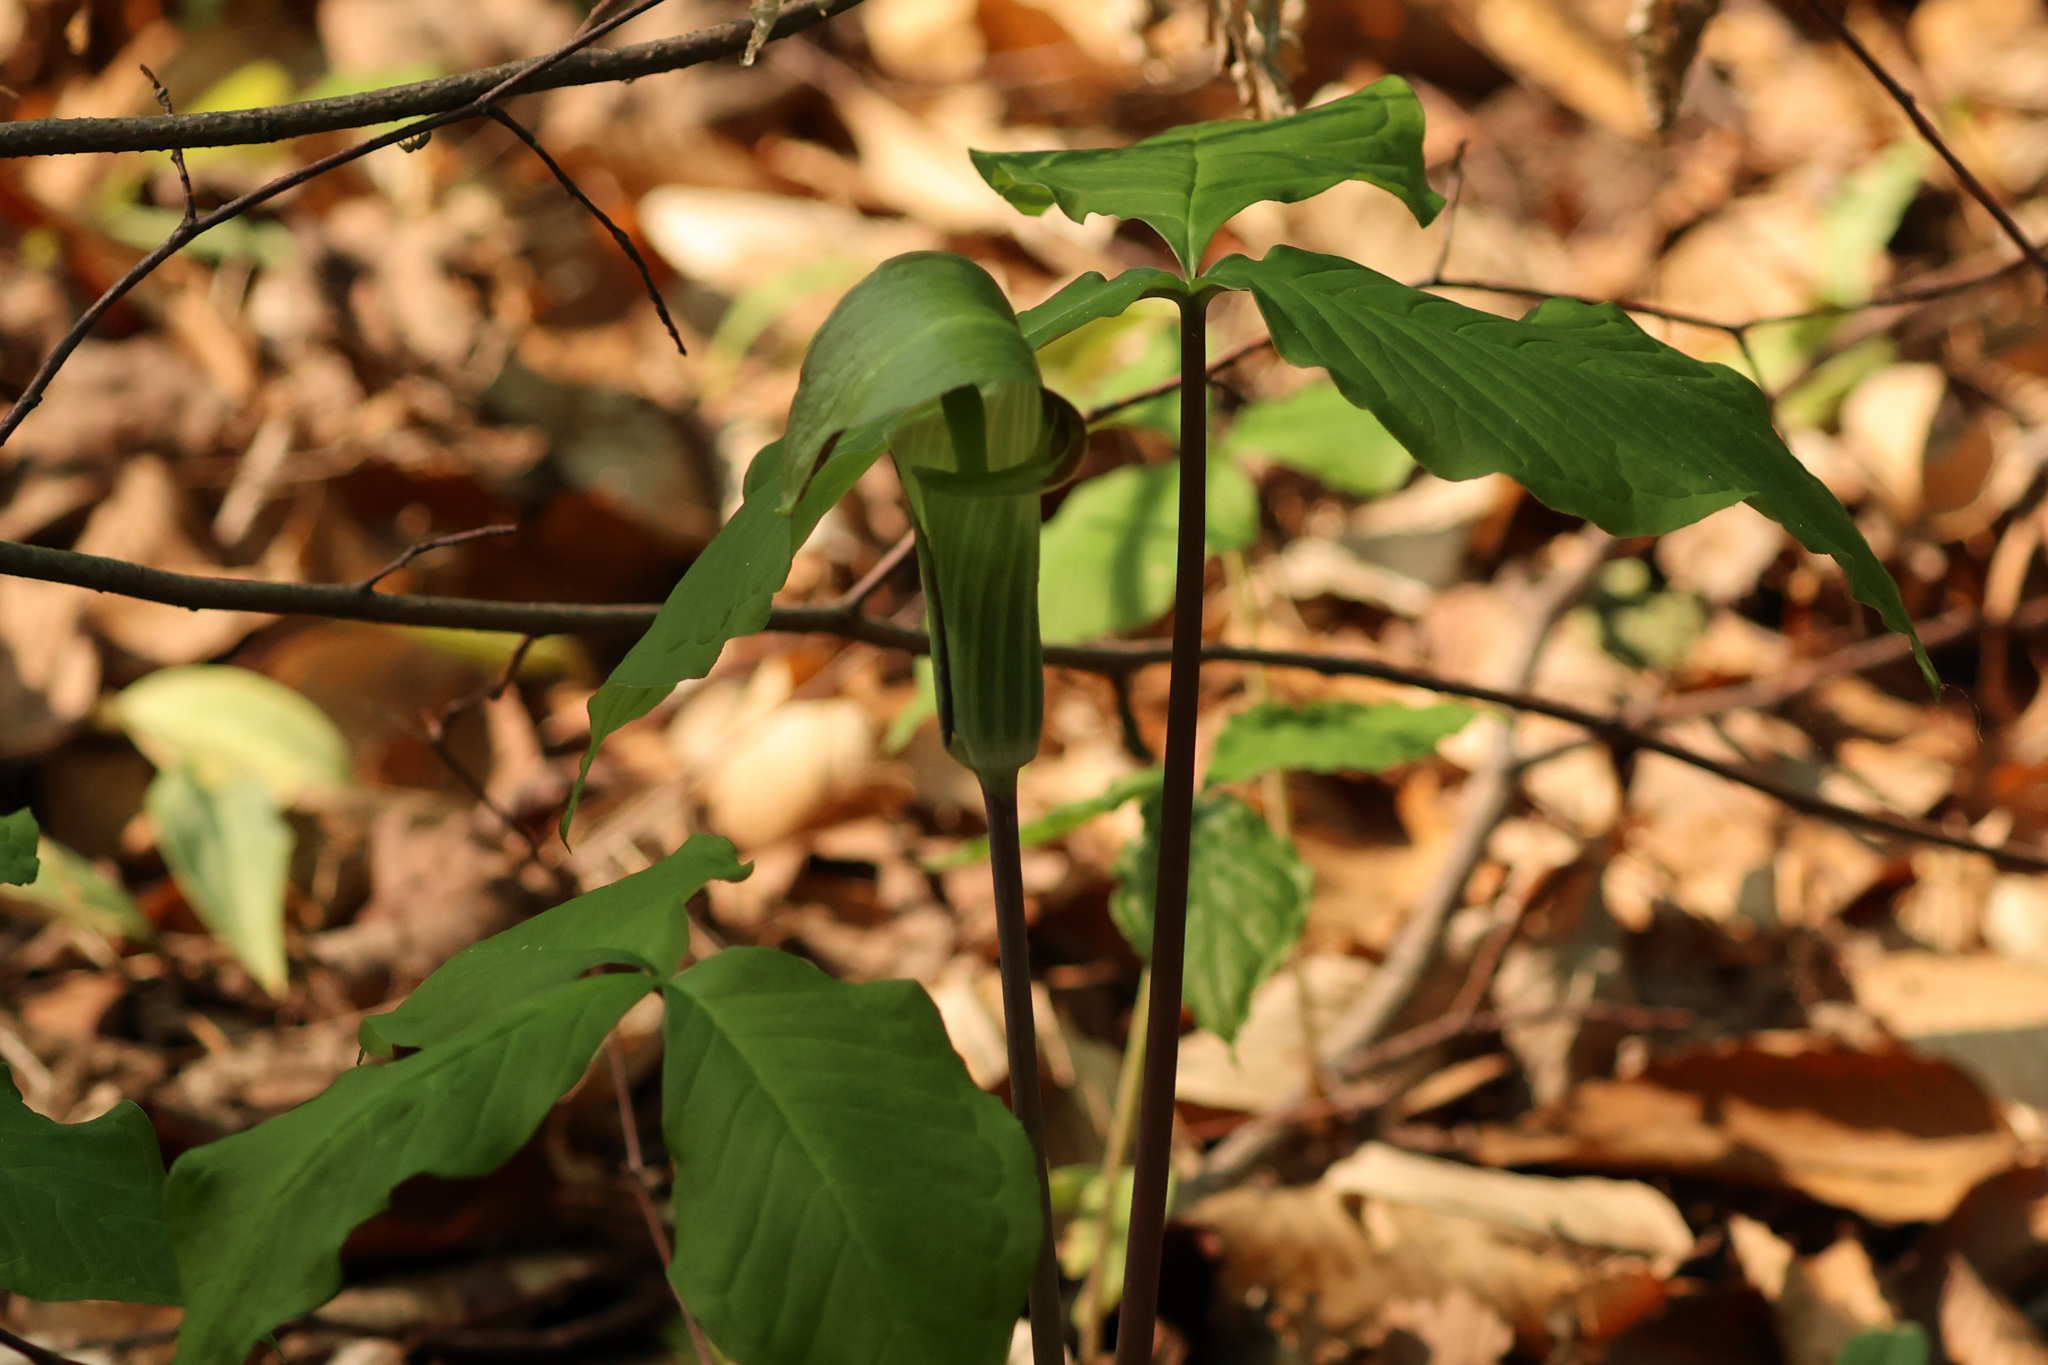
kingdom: Plantae
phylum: Tracheophyta
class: Liliopsida
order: Alismatales
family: Araceae
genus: Arisaema
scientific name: Arisaema triphyllum
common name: Jack-in-the-pulpit
